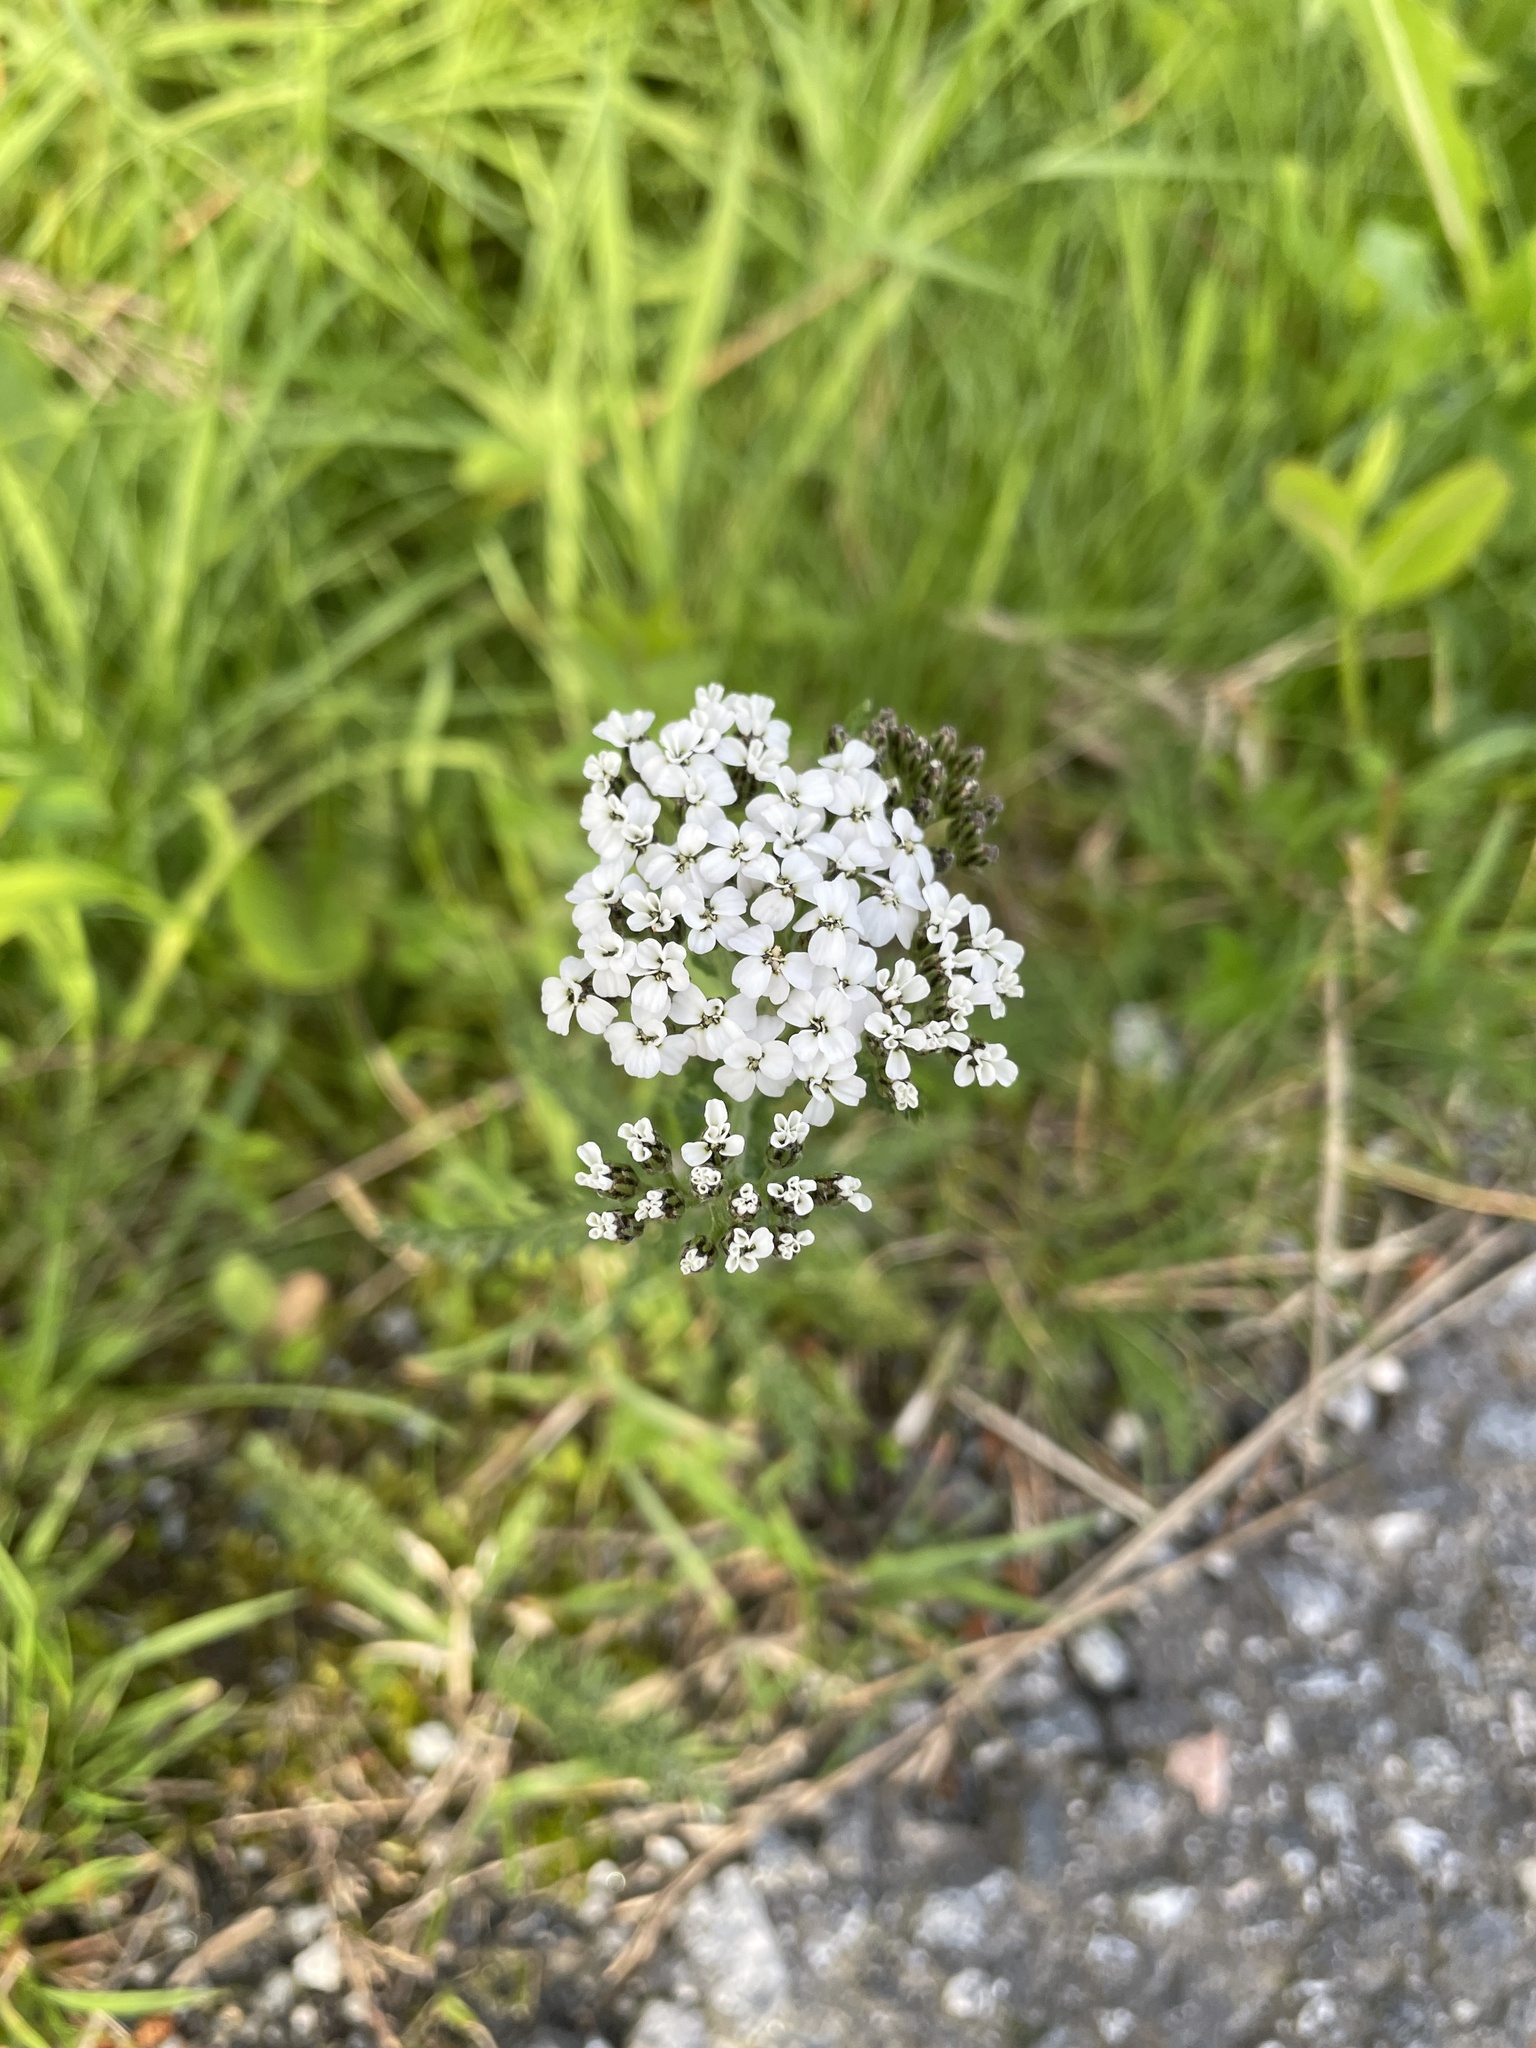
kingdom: Plantae
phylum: Tracheophyta
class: Magnoliopsida
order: Asterales
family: Asteraceae
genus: Achillea
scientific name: Achillea millefolium
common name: Yarrow
